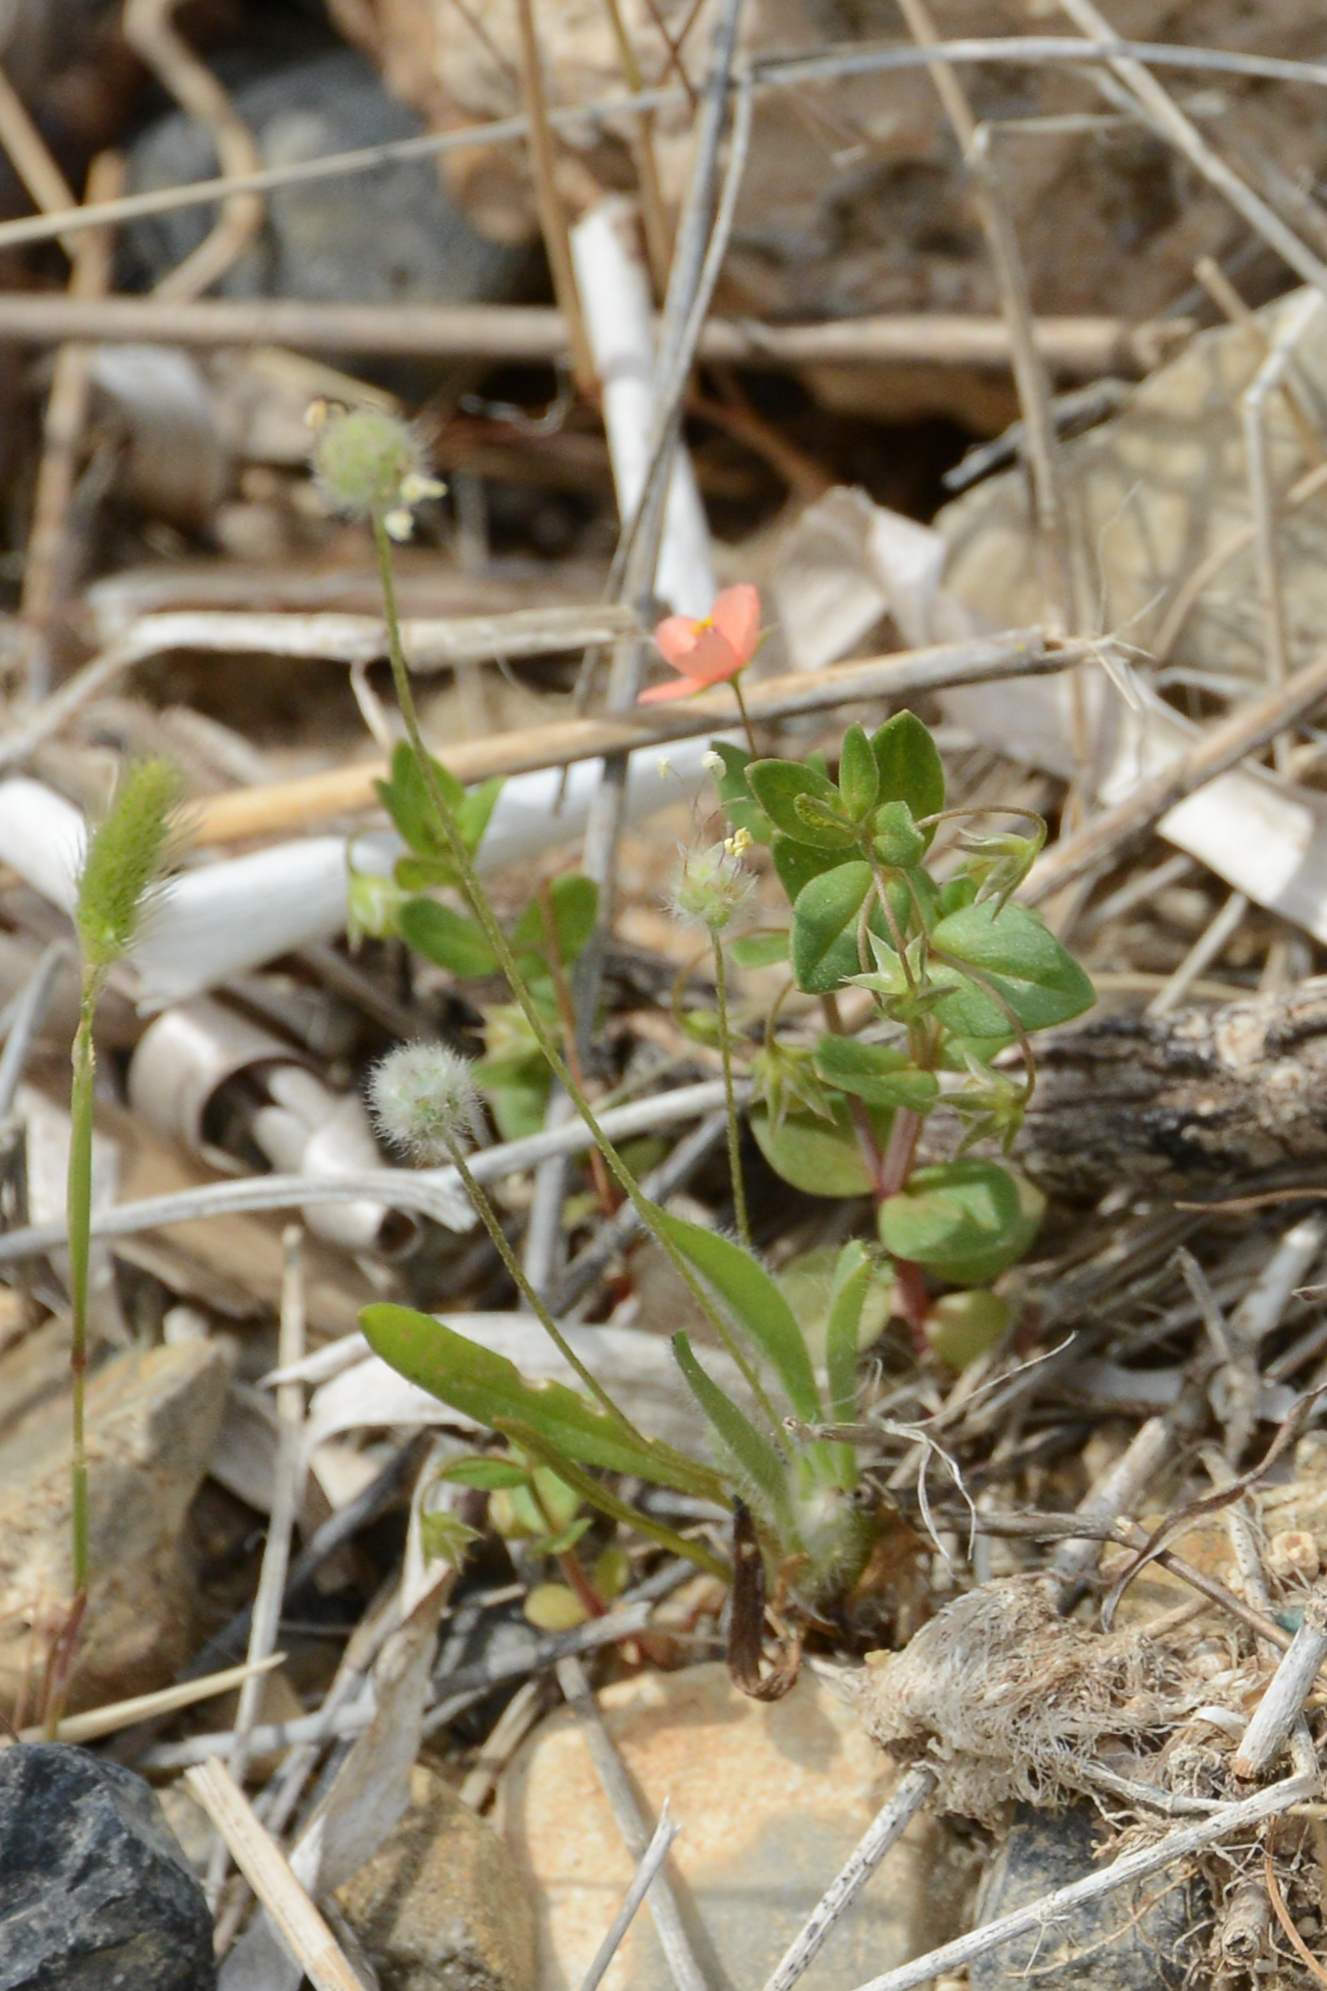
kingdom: Plantae
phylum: Tracheophyta
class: Magnoliopsida
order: Ericales
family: Primulaceae
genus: Lysimachia
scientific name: Lysimachia arvensis
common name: Scarlet pimpernel
